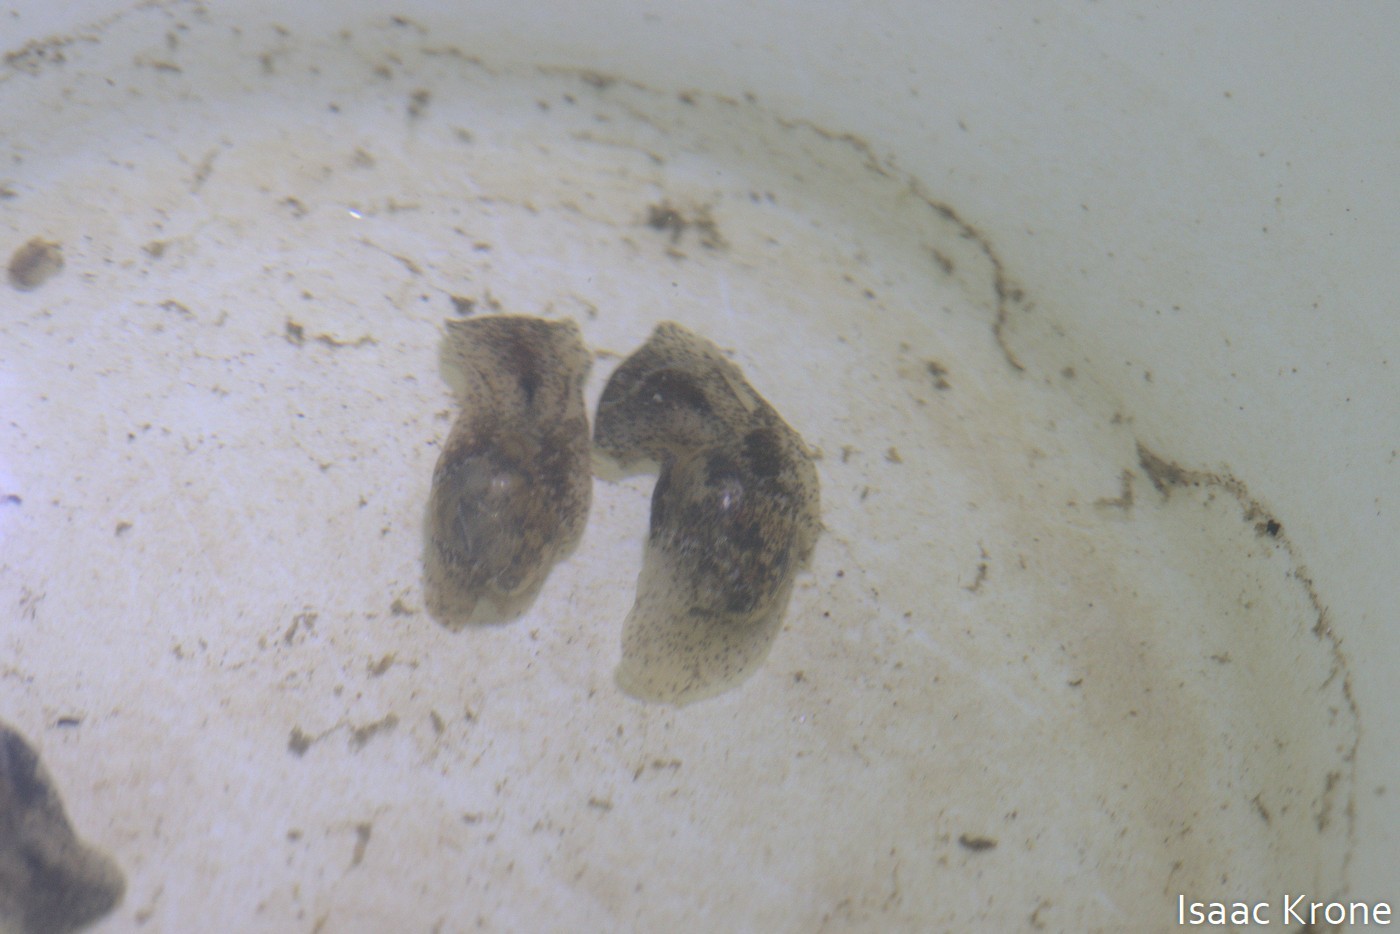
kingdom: Animalia
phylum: Mollusca
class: Gastropoda
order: Cephalaspidea
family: Haminoeidae
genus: Haloa
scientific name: Haloa japonica
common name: Japanese bubble snail
